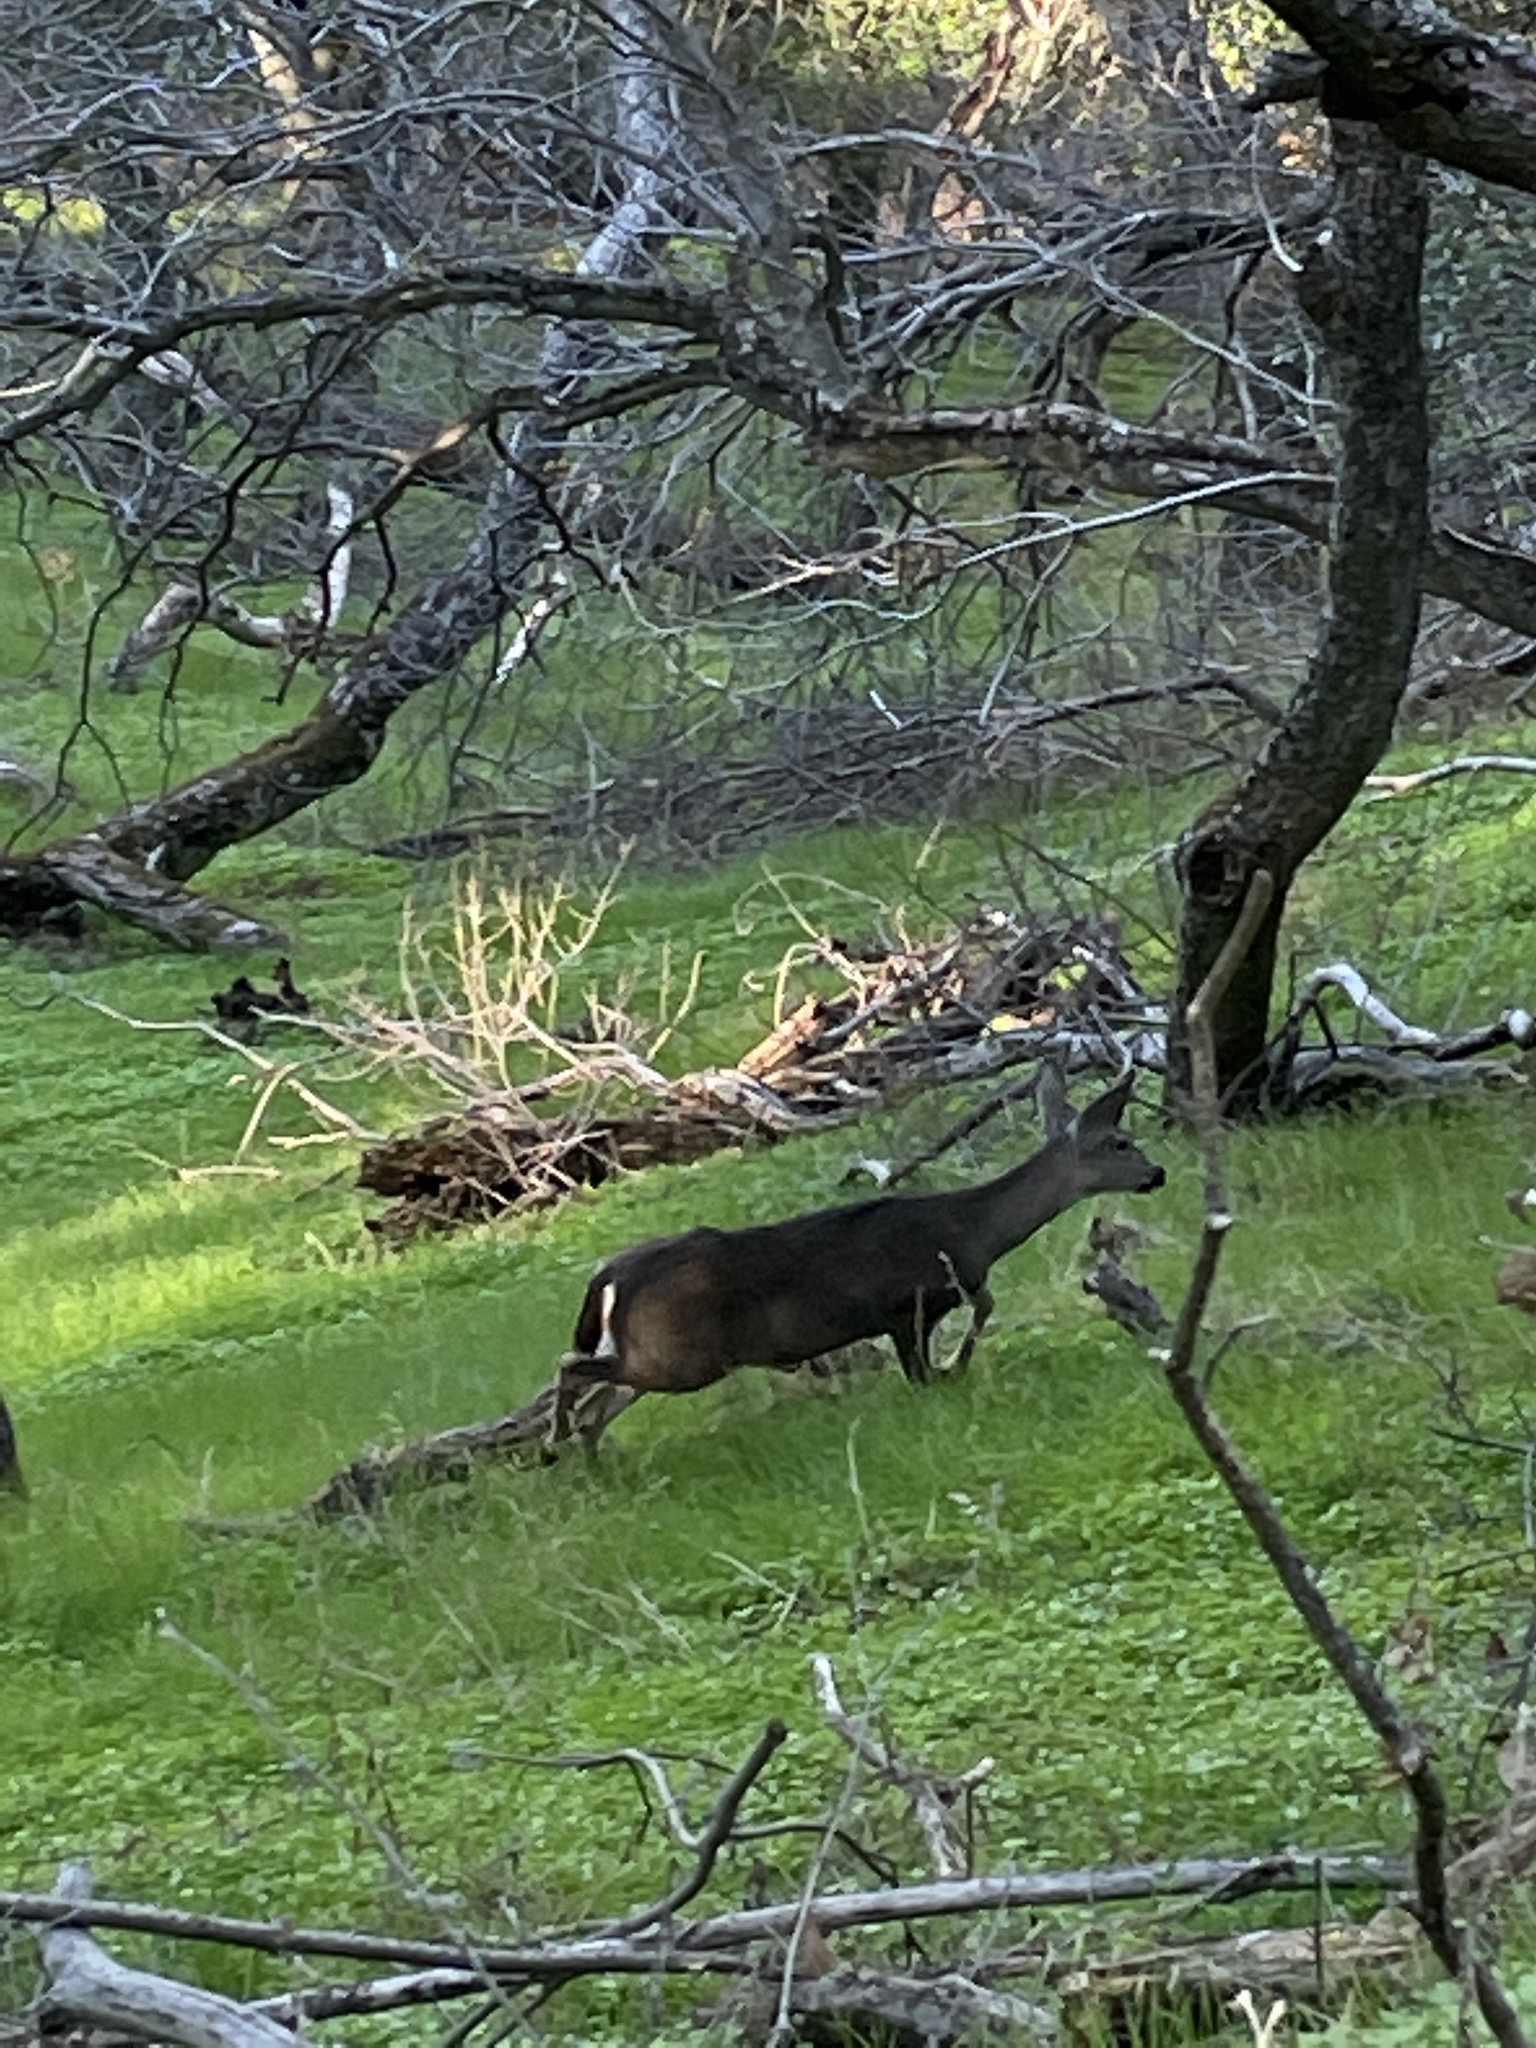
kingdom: Animalia
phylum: Chordata
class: Mammalia
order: Artiodactyla
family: Cervidae
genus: Odocoileus
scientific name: Odocoileus hemionus
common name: Mule deer
